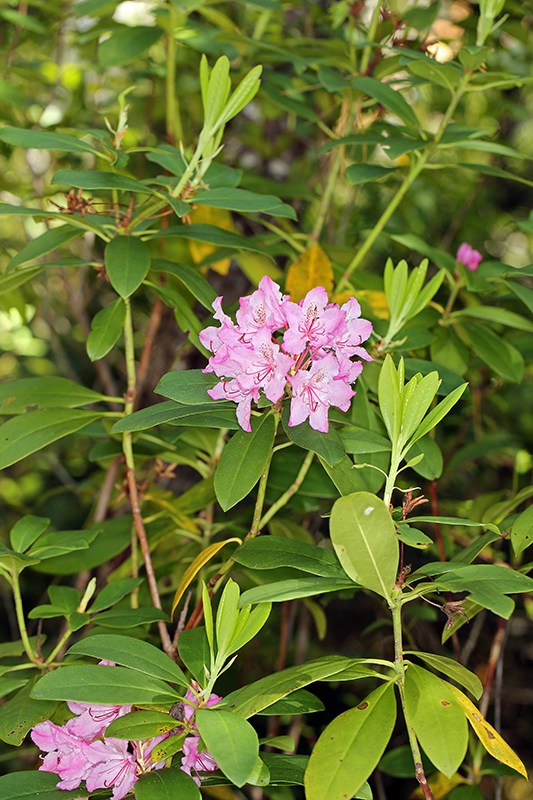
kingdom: Plantae
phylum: Tracheophyta
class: Magnoliopsida
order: Ericales
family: Ericaceae
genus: Rhododendron
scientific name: Rhododendron macrophyllum
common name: California rose bay
